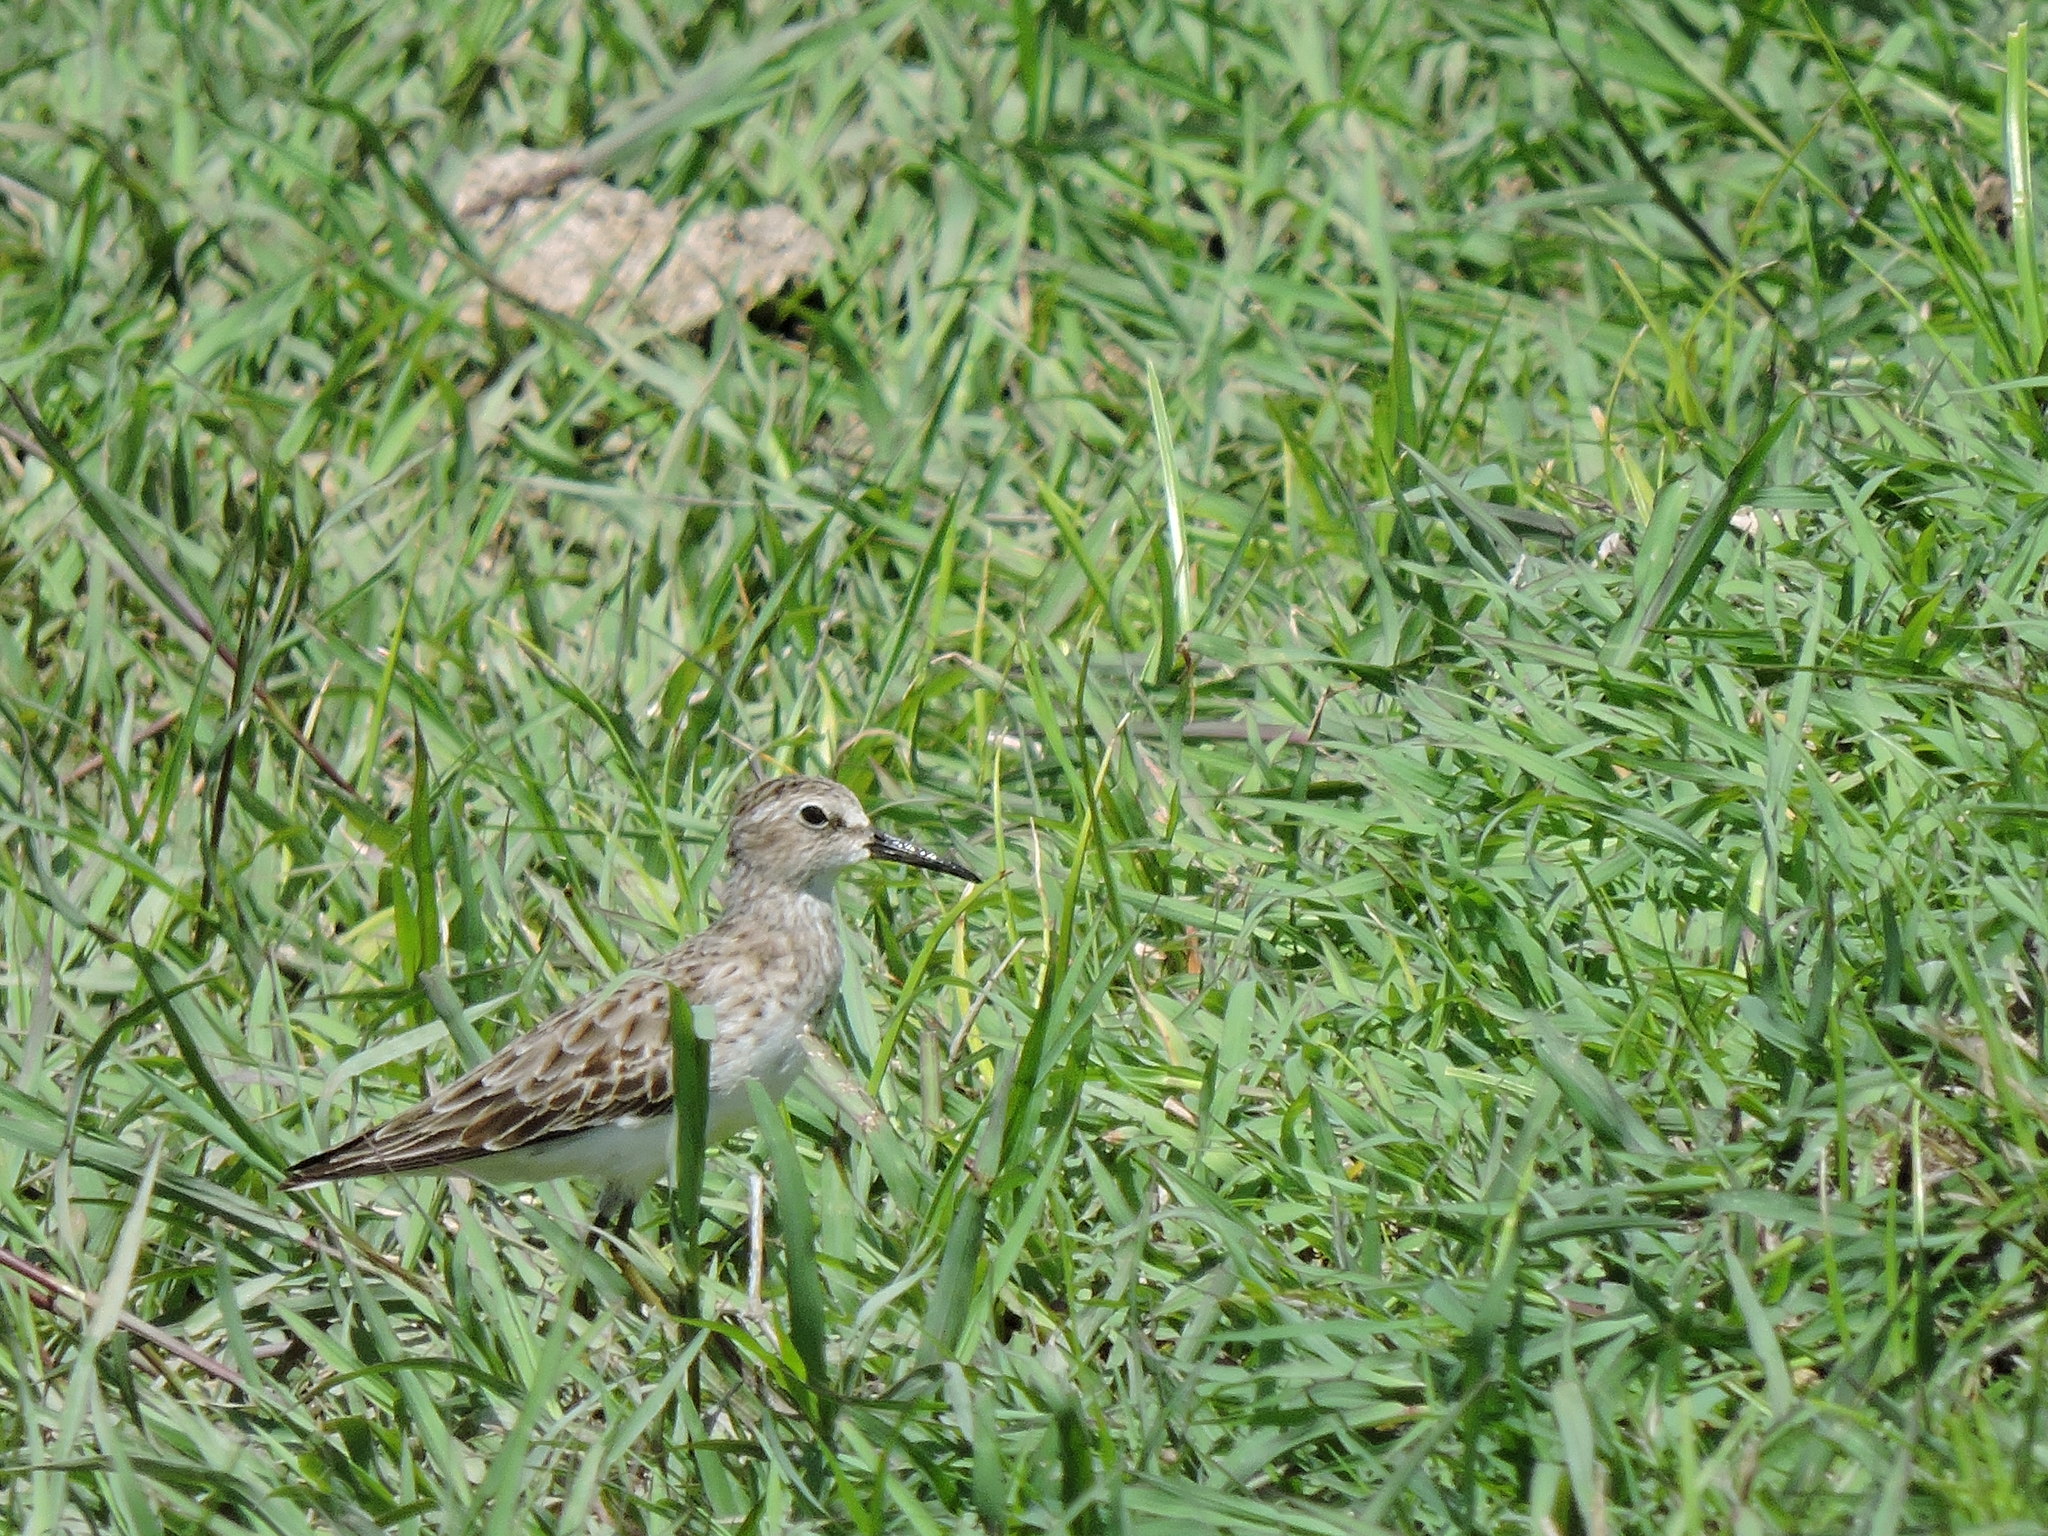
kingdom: Animalia
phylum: Chordata
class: Aves
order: Charadriiformes
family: Scolopacidae
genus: Calidris
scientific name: Calidris minutilla
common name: Least sandpiper
